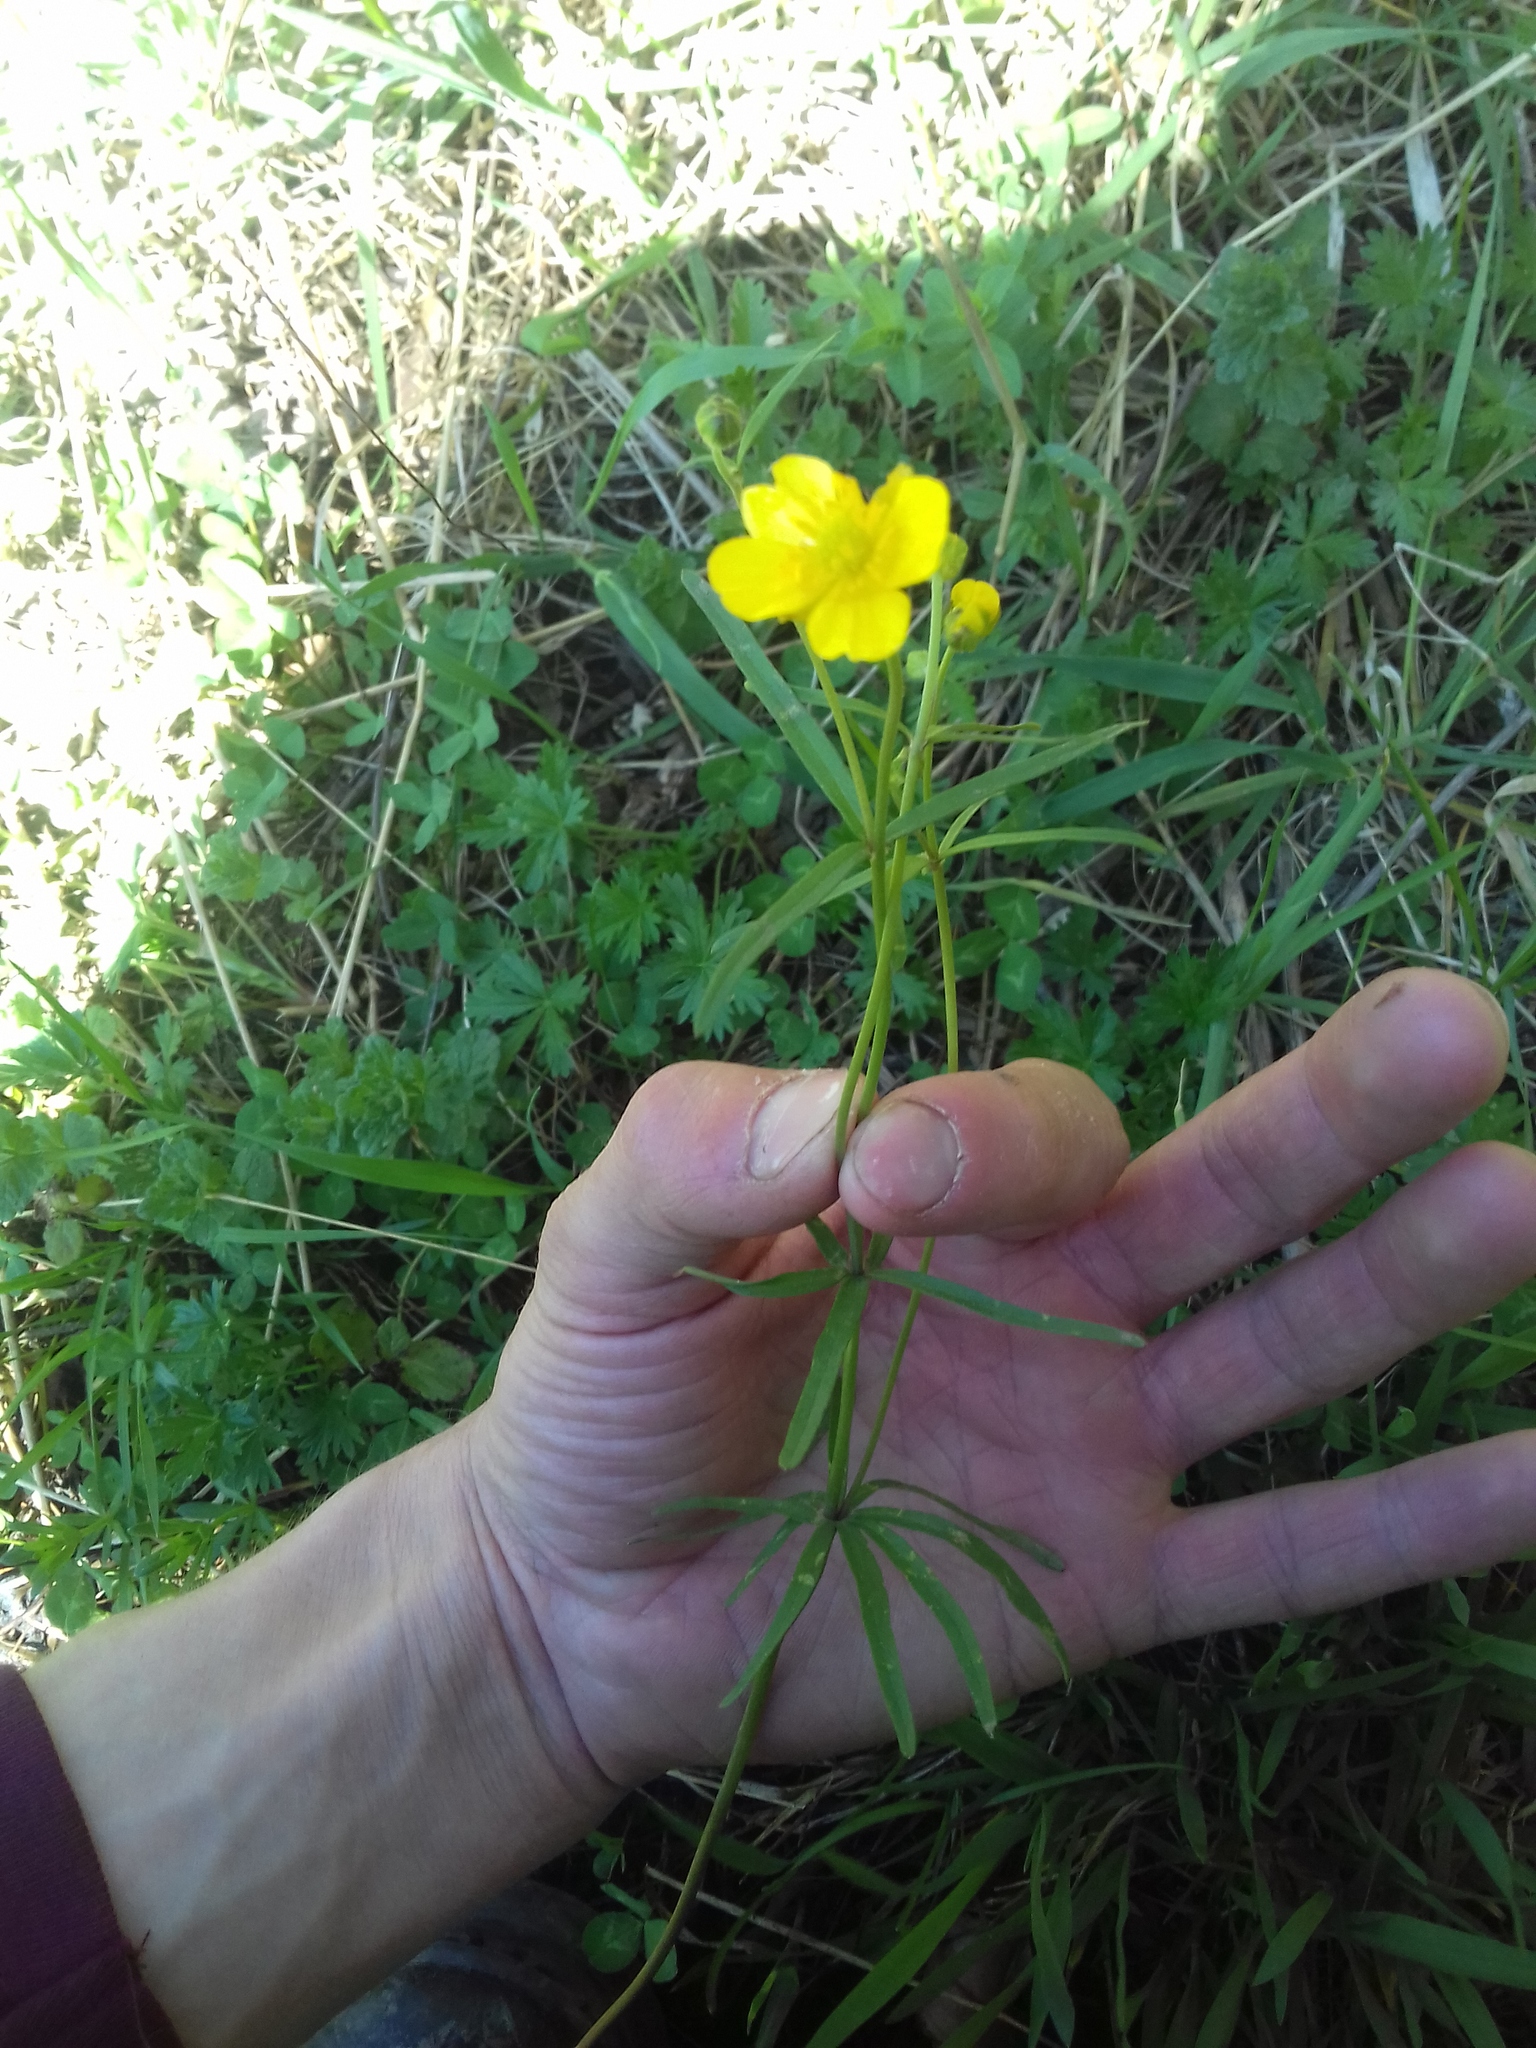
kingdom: Plantae
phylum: Tracheophyta
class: Magnoliopsida
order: Ranunculales
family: Ranunculaceae
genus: Ranunculus
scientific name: Ranunculus auricomus
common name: Goldilocks buttercup
